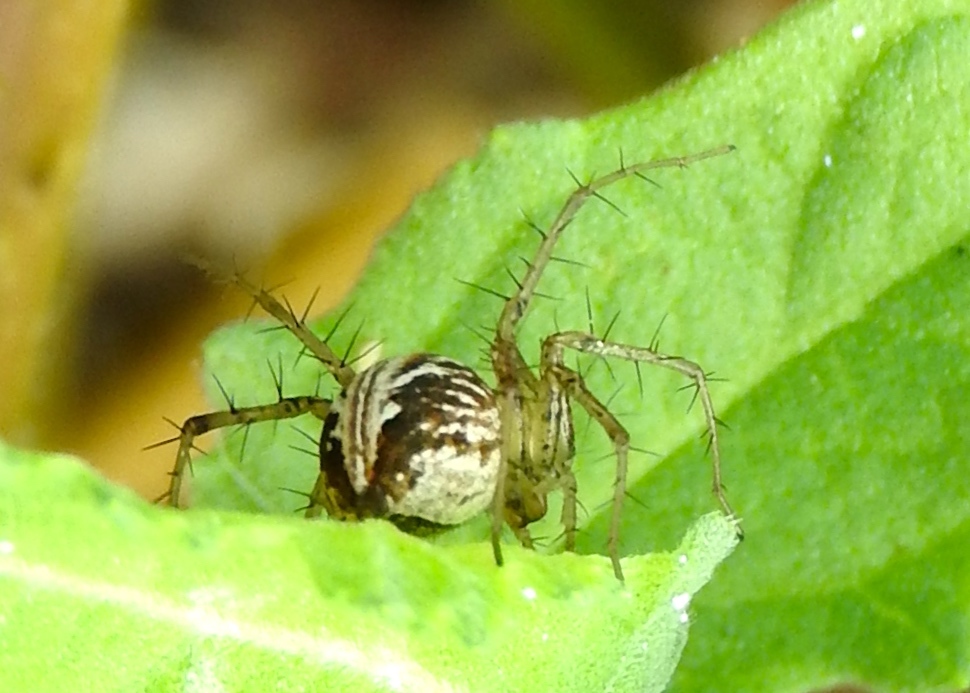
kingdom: Animalia
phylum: Arthropoda
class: Arachnida
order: Araneae
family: Oxyopidae
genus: Oxyopes
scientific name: Oxyopes
